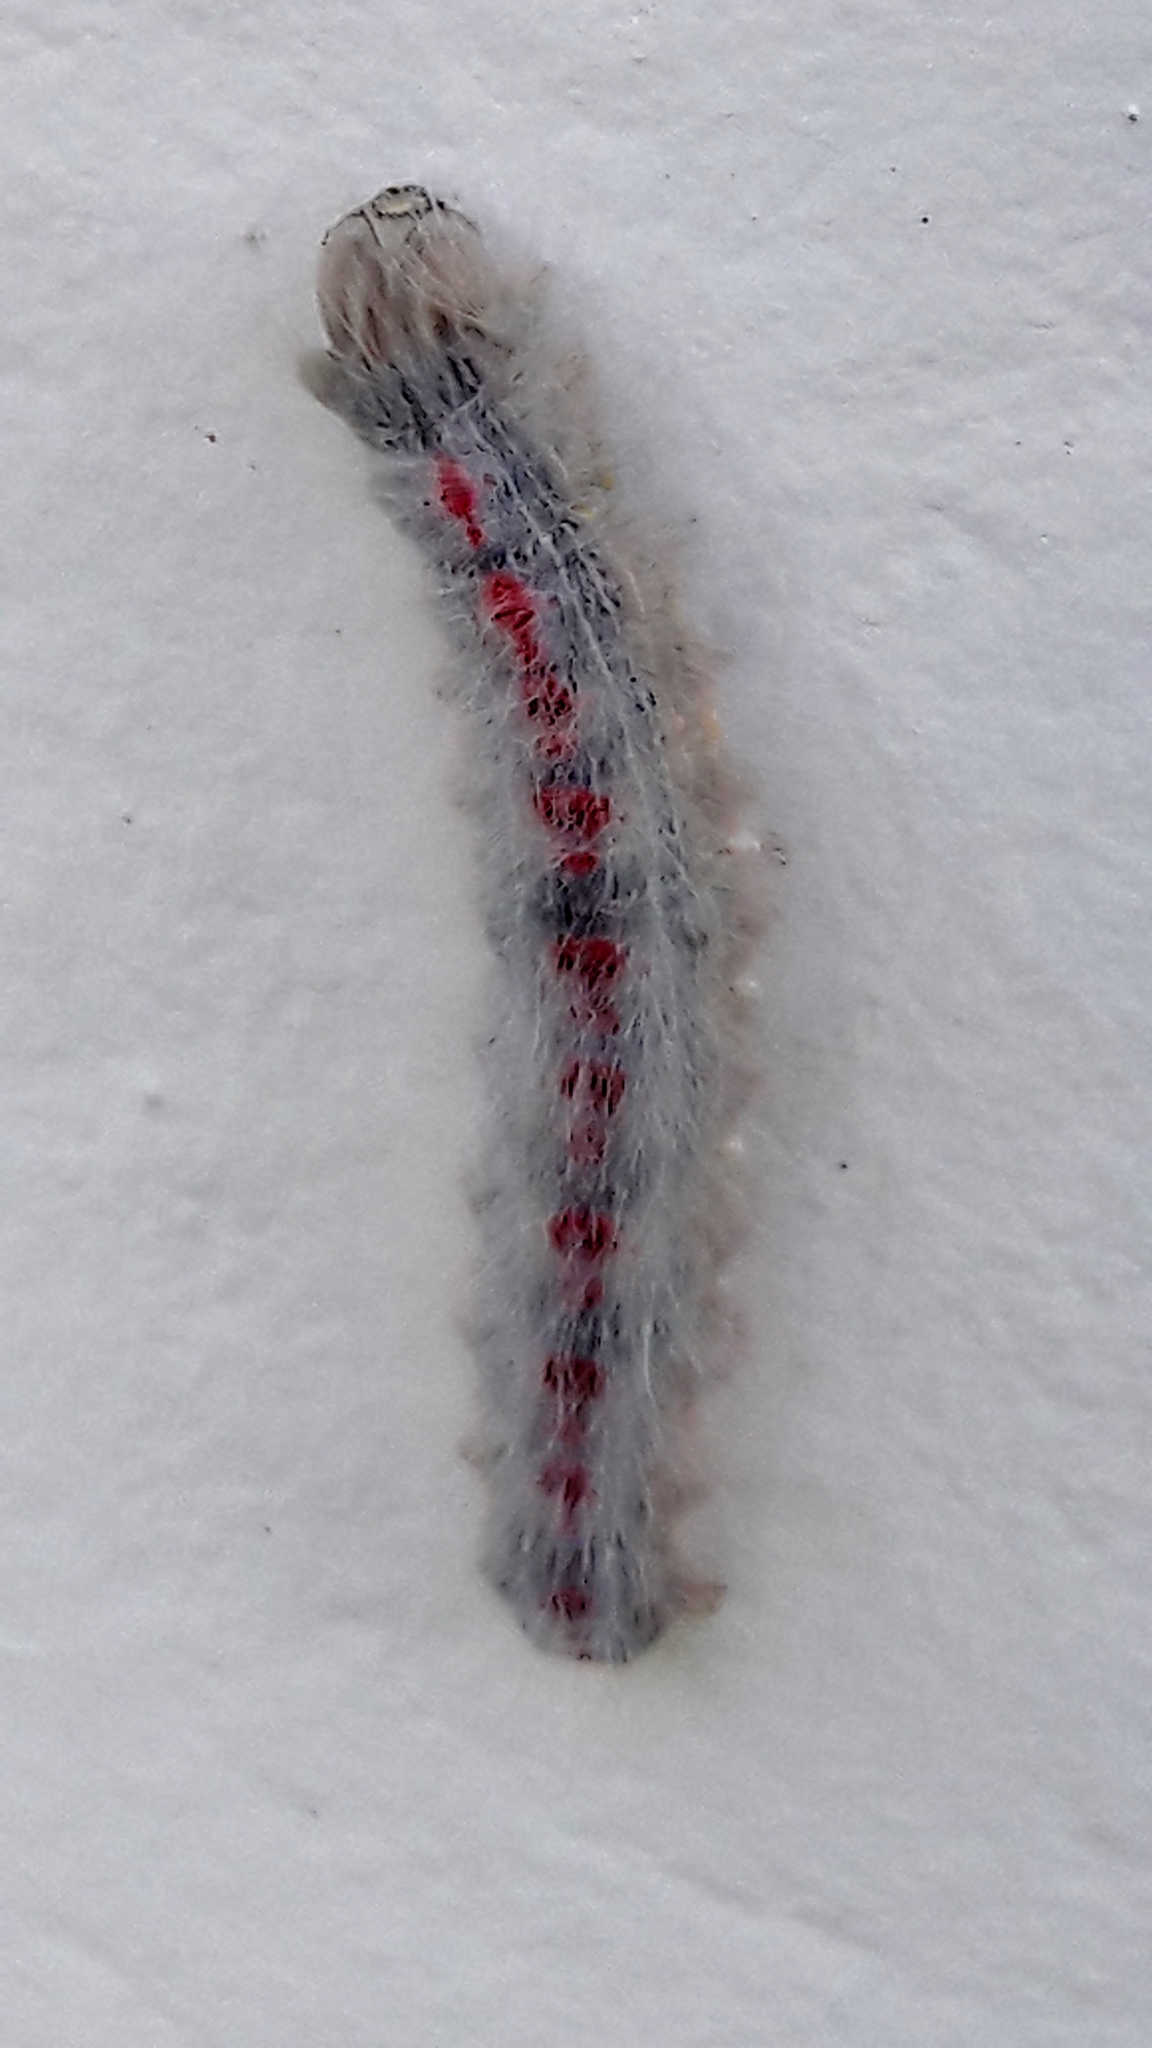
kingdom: Animalia
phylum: Arthropoda
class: Insecta
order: Lepidoptera
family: Lasiocampidae
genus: Euglyphis
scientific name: Euglyphis aenegia
